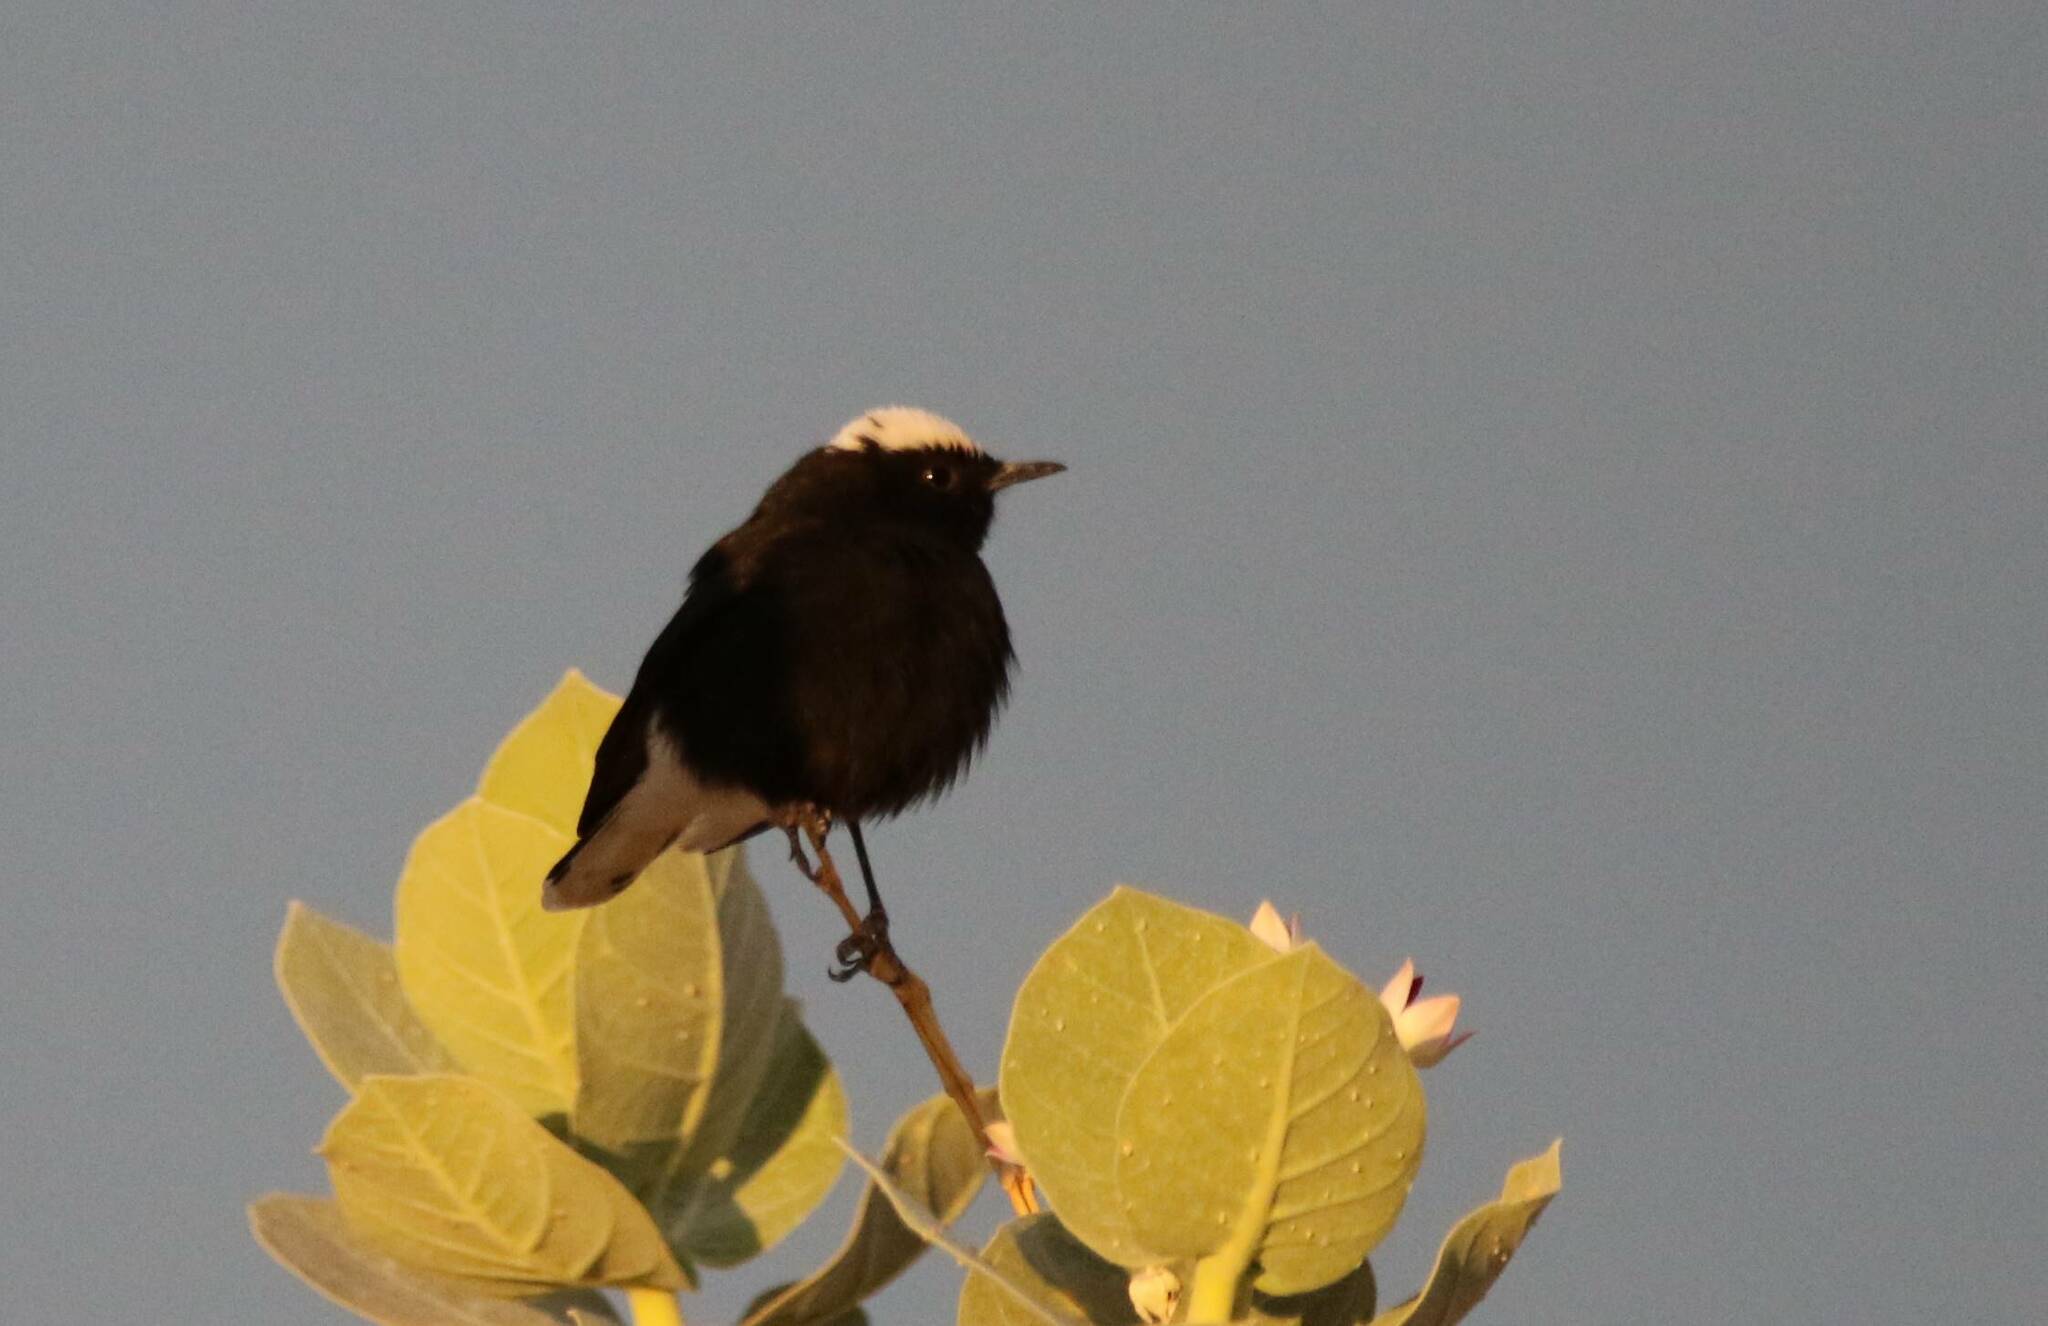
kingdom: Animalia
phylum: Chordata
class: Aves
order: Passeriformes
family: Muscicapidae
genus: Oenanthe
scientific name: Oenanthe leucopyga
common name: White-crowned wheatear
